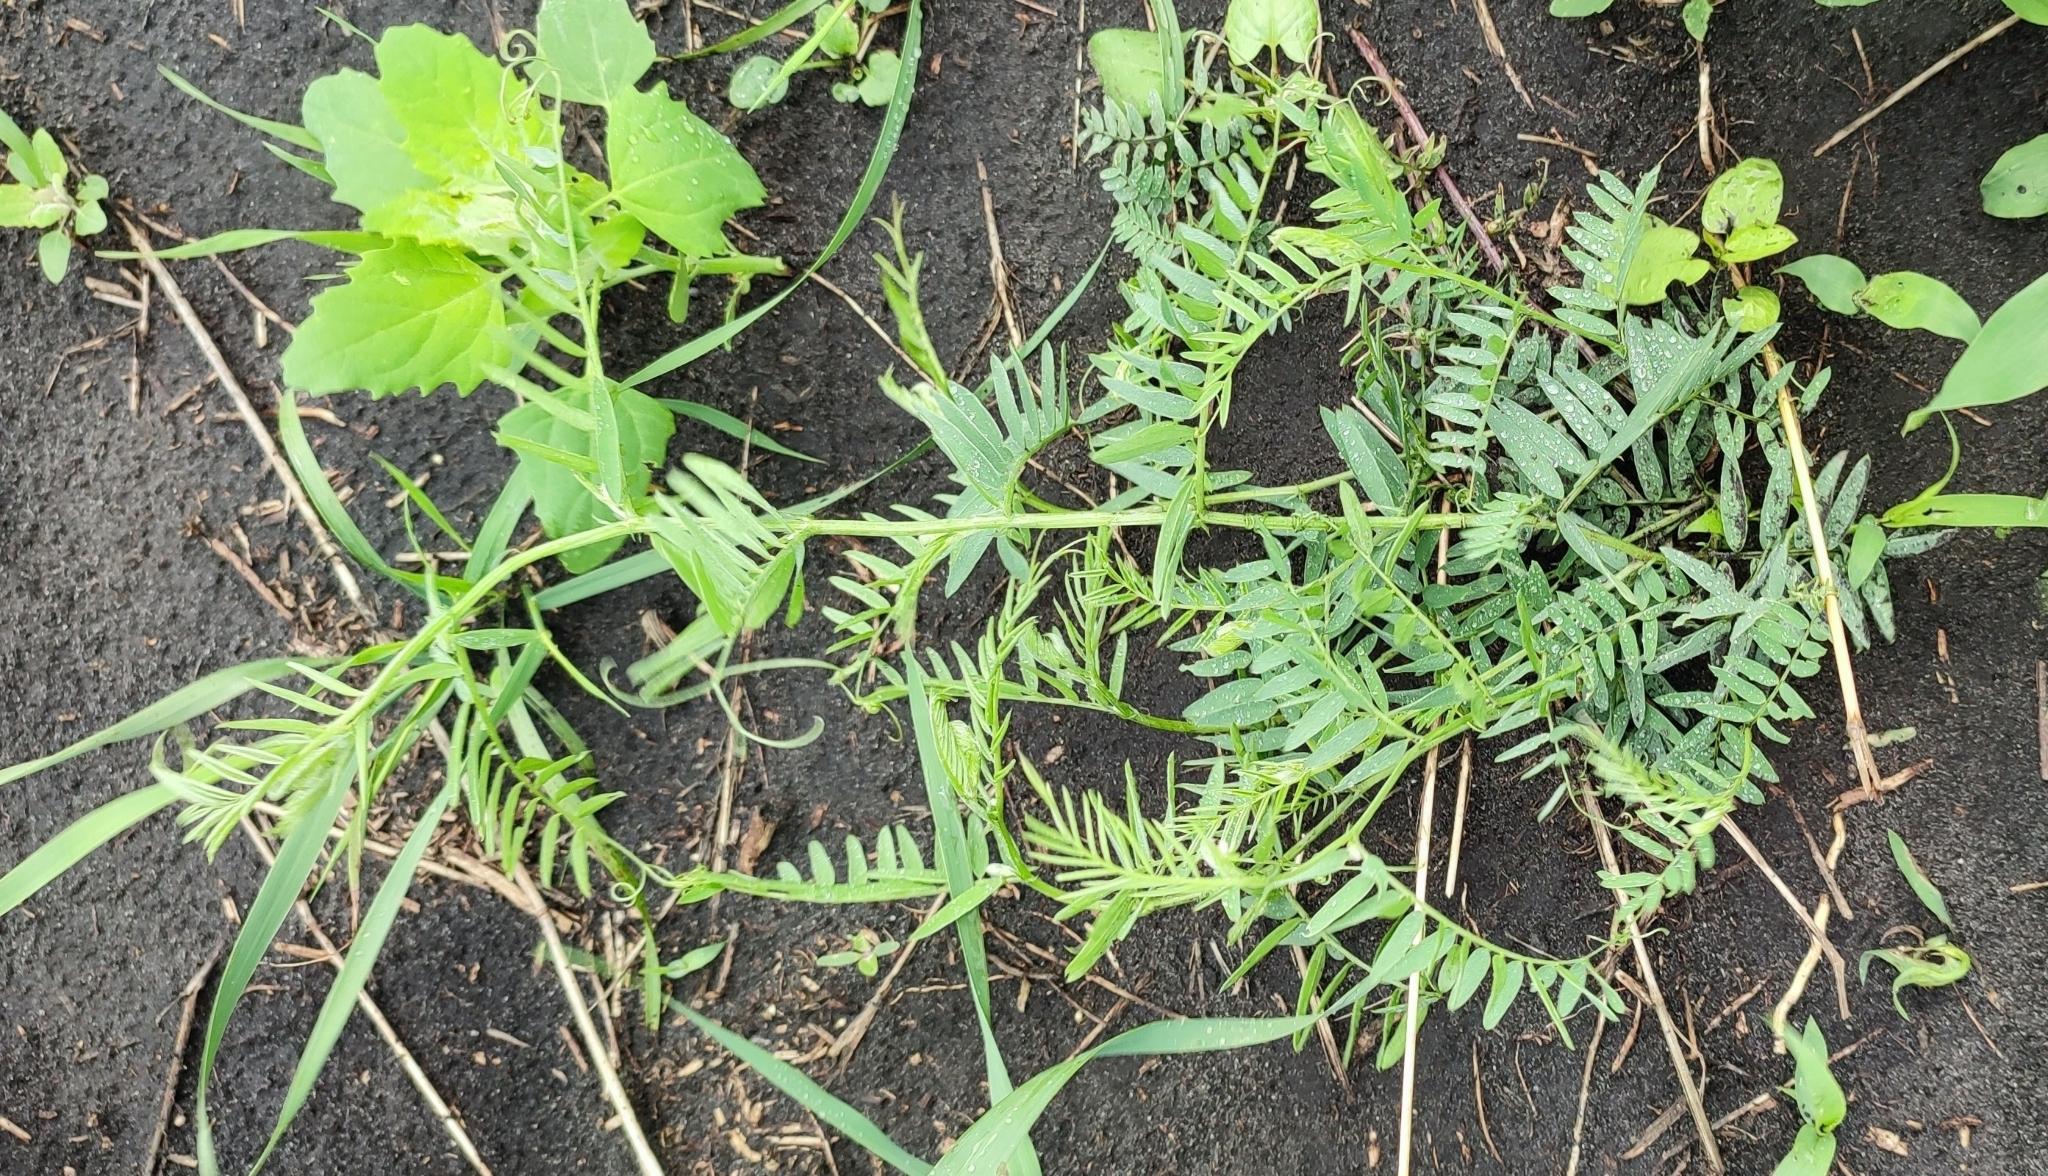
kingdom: Plantae
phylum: Tracheophyta
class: Magnoliopsida
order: Fabales
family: Fabaceae
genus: Vicia
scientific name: Vicia cracca
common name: Bird vetch
